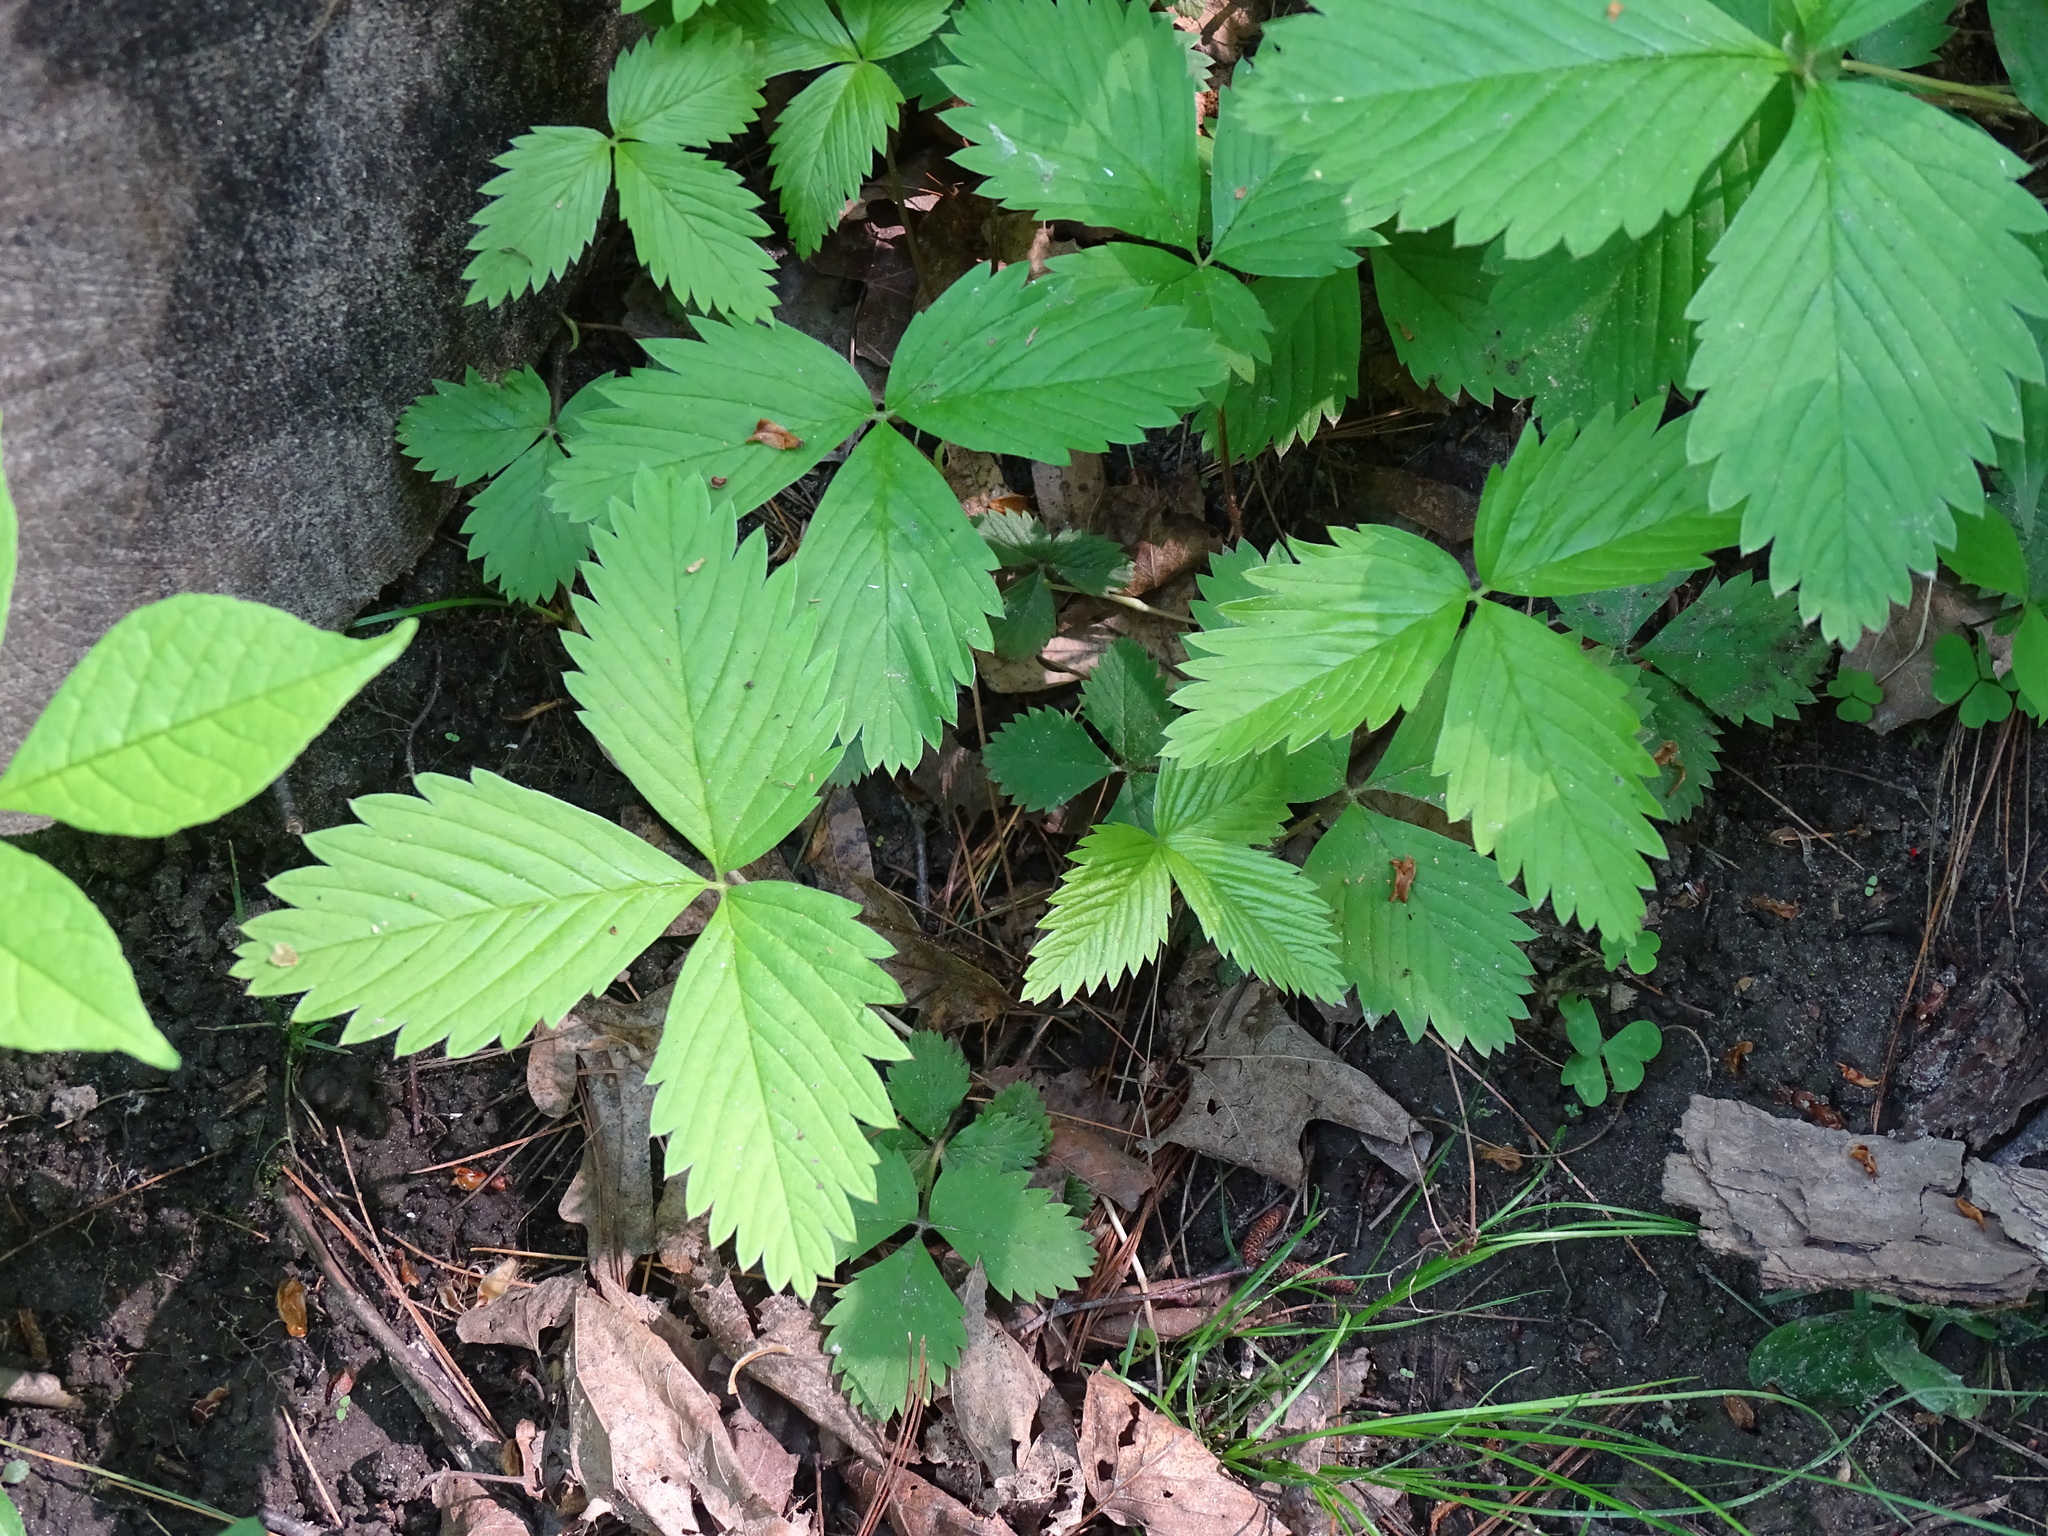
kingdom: Plantae
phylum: Tracheophyta
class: Magnoliopsida
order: Rosales
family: Rosaceae
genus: Fragaria
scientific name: Fragaria vesca
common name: Wild strawberry
